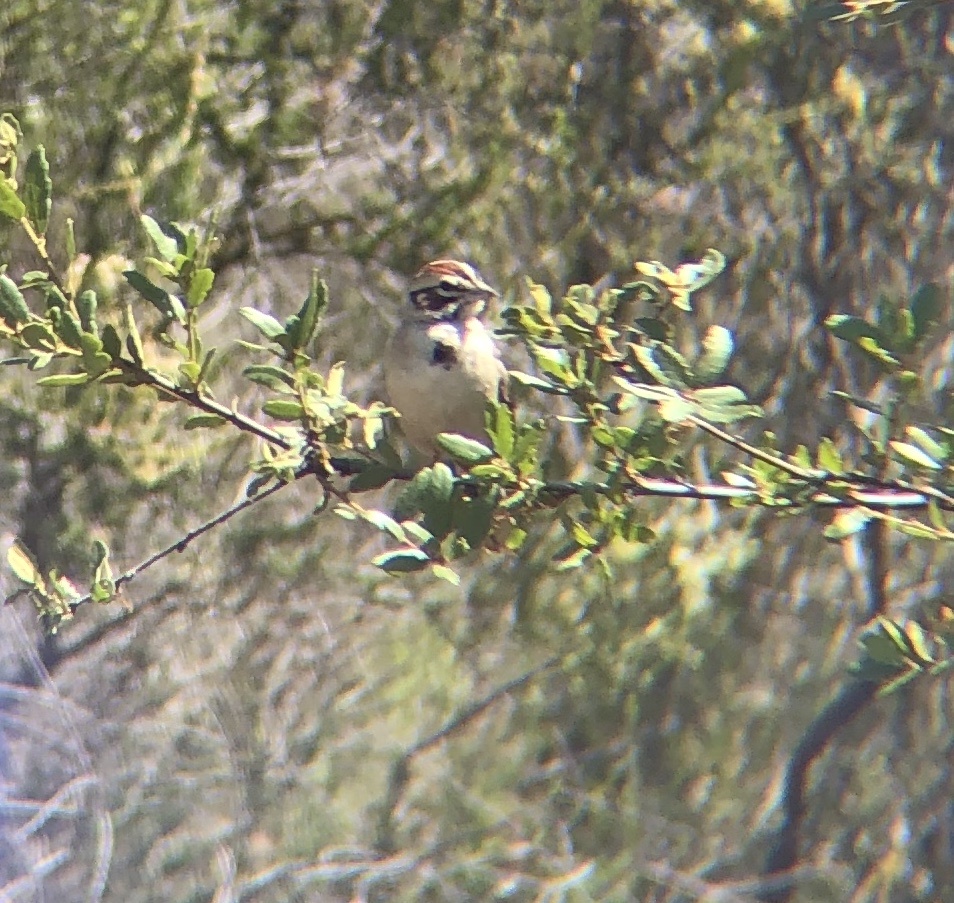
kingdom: Animalia
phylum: Chordata
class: Aves
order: Passeriformes
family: Passerellidae
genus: Chondestes
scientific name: Chondestes grammacus
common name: Lark sparrow
